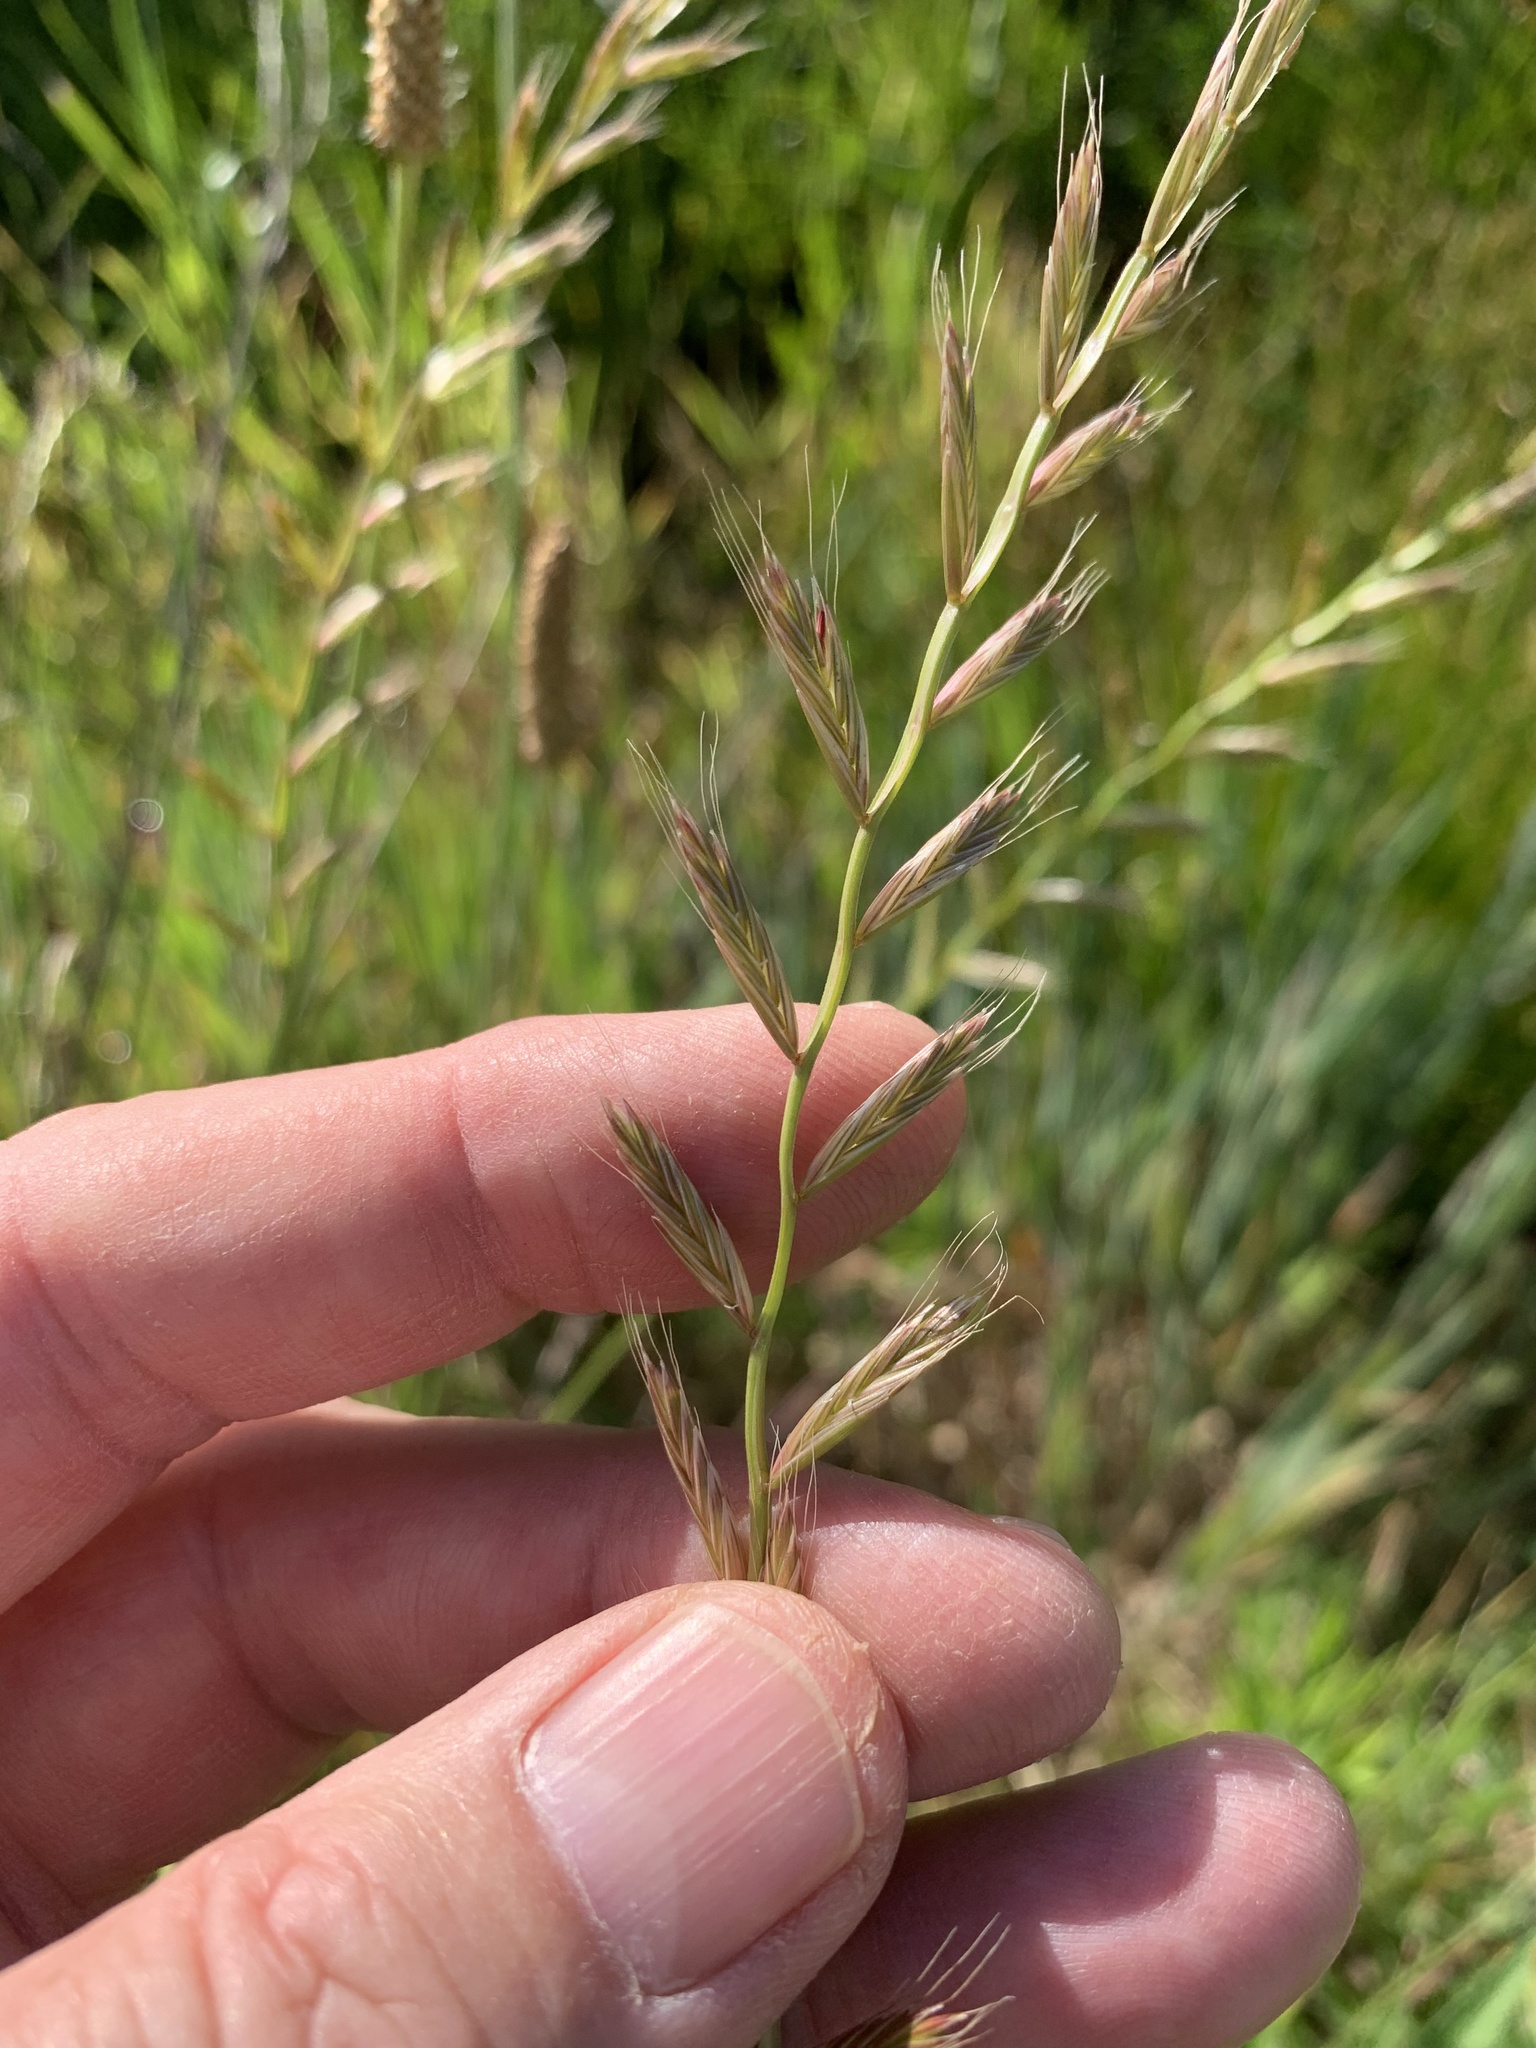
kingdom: Plantae
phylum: Tracheophyta
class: Liliopsida
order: Poales
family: Poaceae
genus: Lolium
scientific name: Lolium multiflorum
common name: Annual ryegrass
